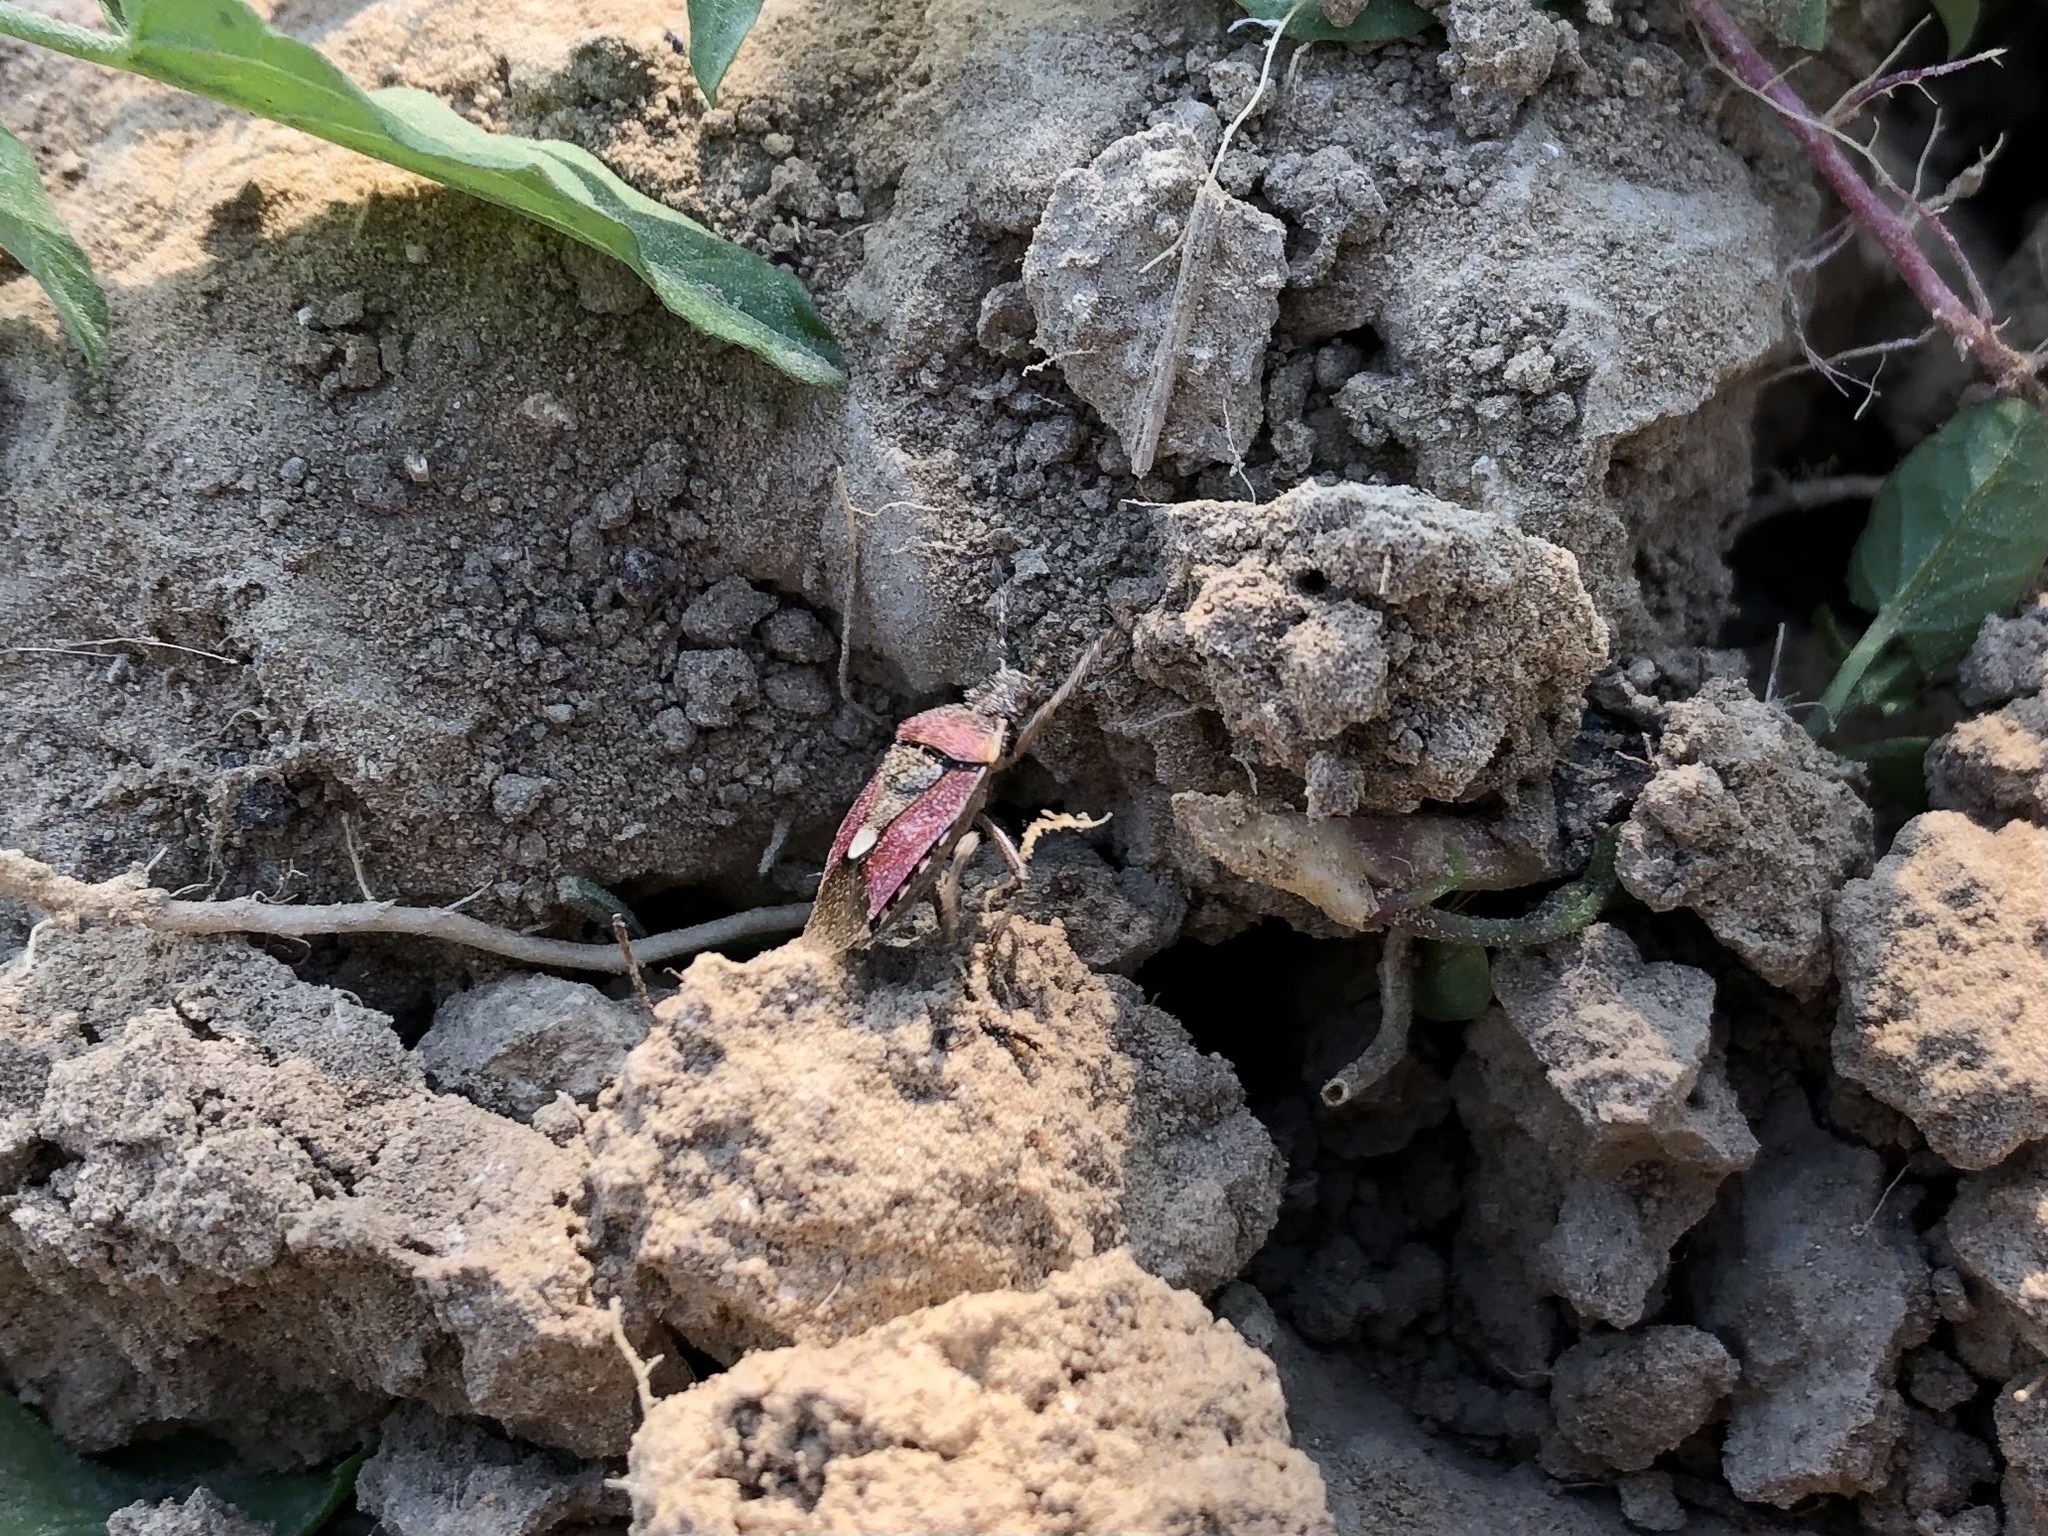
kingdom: Animalia
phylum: Arthropoda
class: Insecta
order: Hemiptera
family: Pentatomidae
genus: Dolycoris
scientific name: Dolycoris baccarum
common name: Sloe bug
